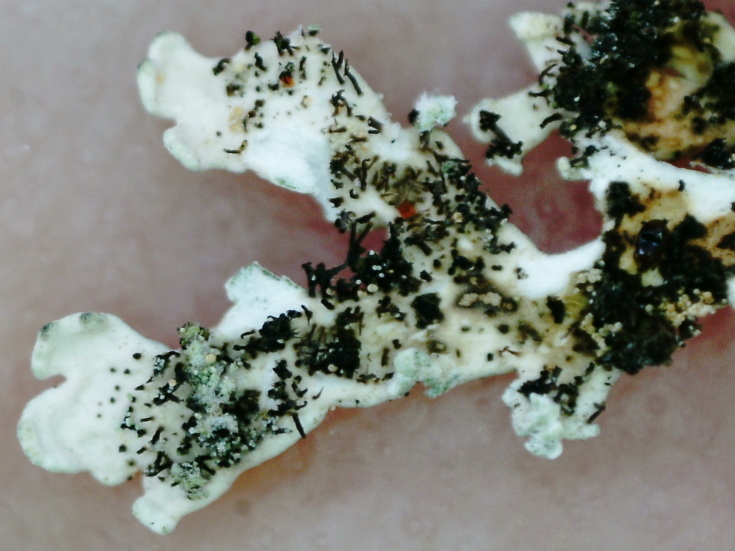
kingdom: Fungi
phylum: Ascomycota
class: Lecanoromycetes
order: Lecanorales
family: Parmeliaceae
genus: Arctoparmelia
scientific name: Arctoparmelia centrifuga
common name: Concentric ring lichen
